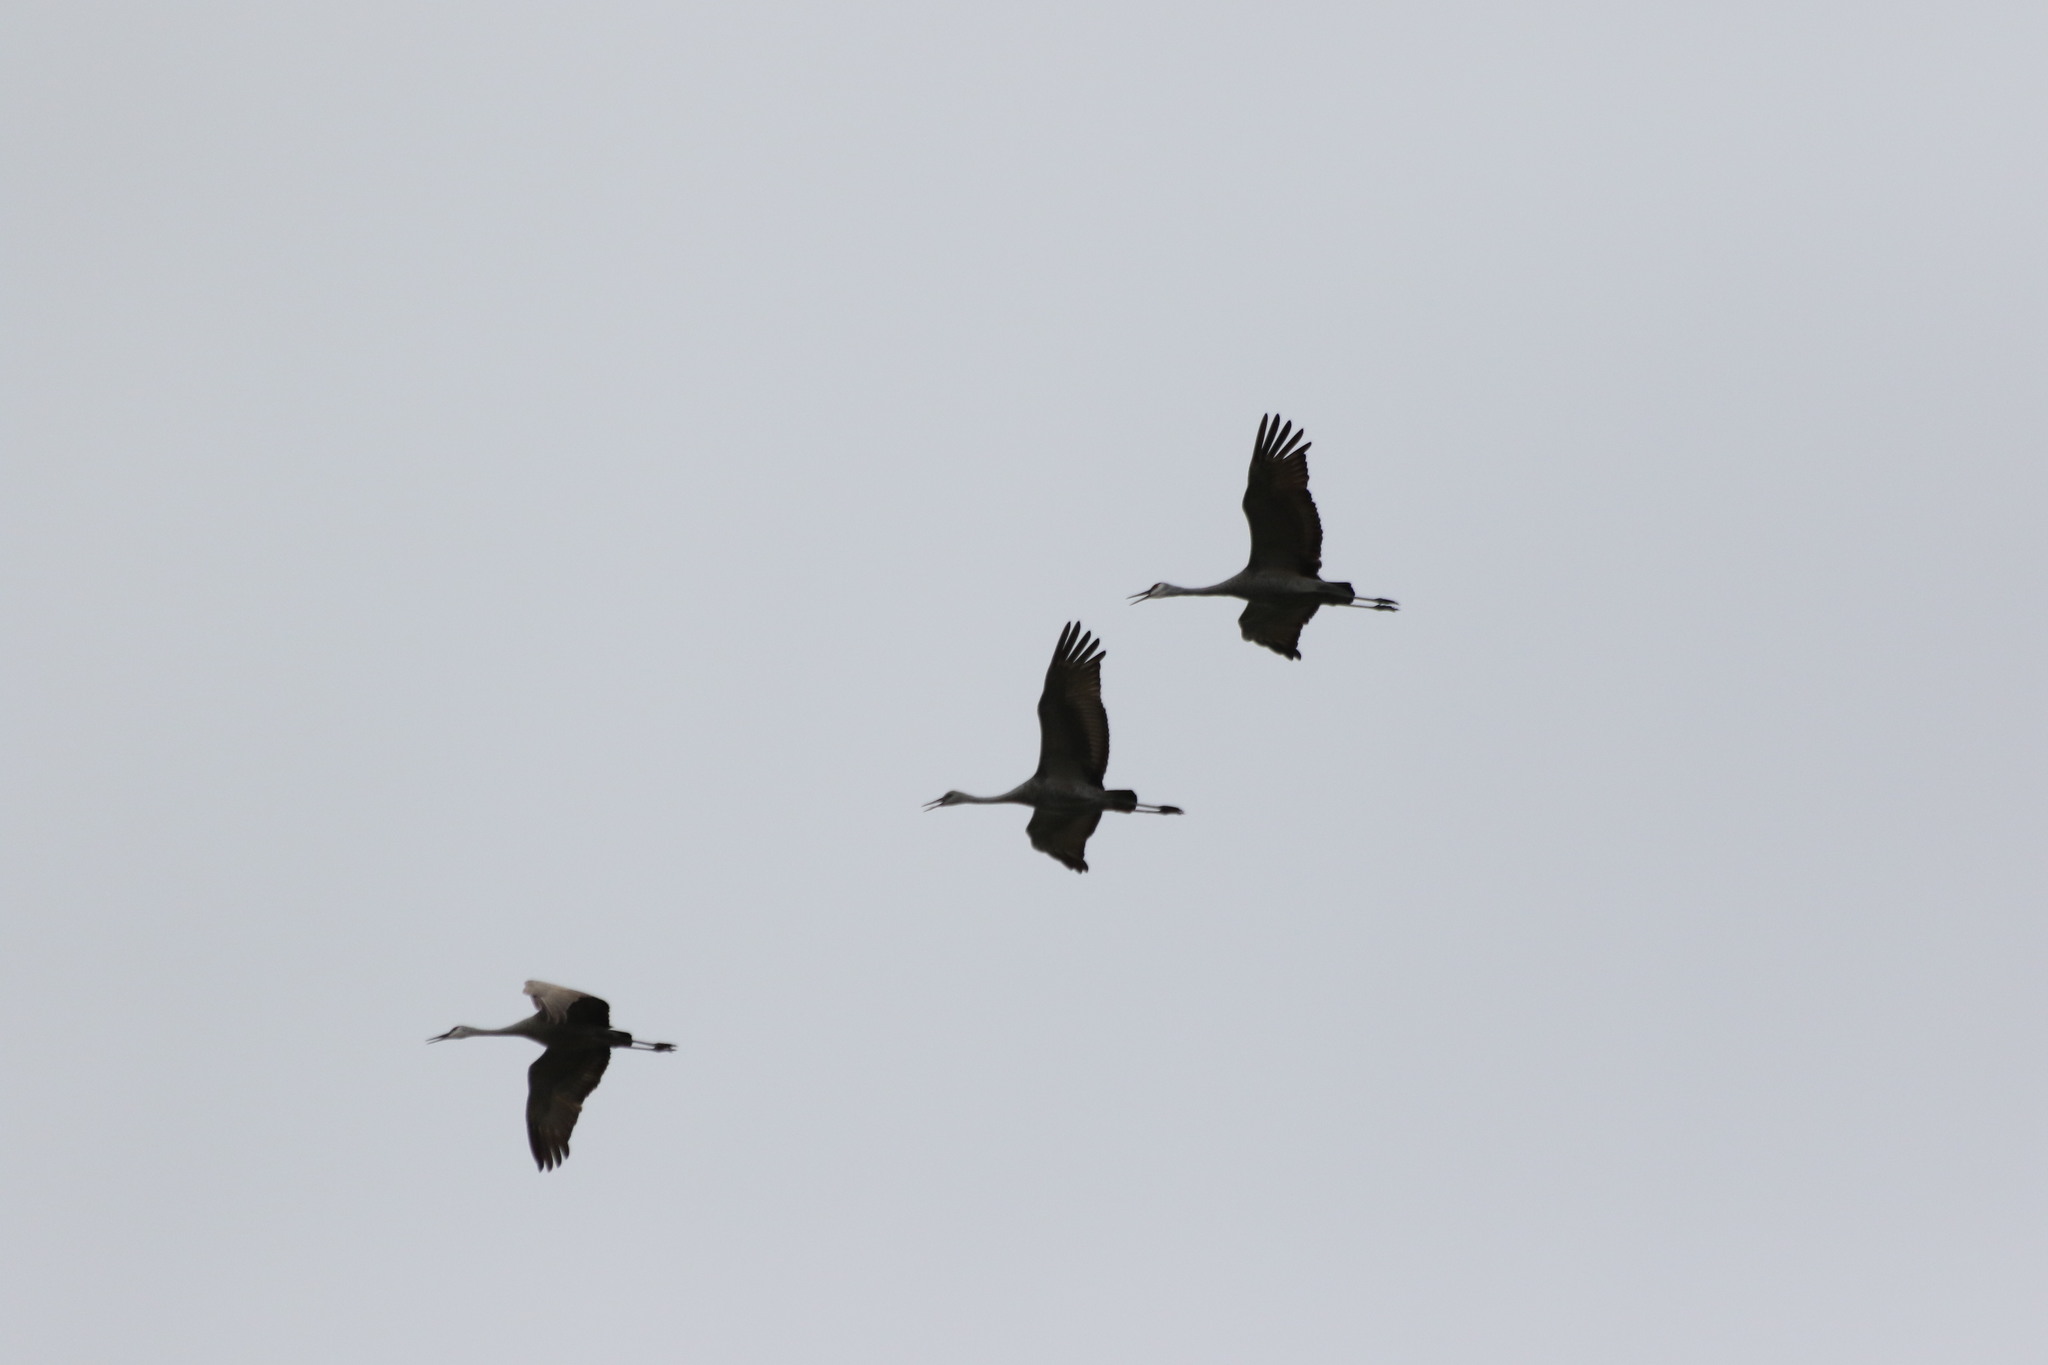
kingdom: Animalia
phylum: Chordata
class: Aves
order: Gruiformes
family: Gruidae
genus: Grus
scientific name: Grus canadensis
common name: Sandhill crane
